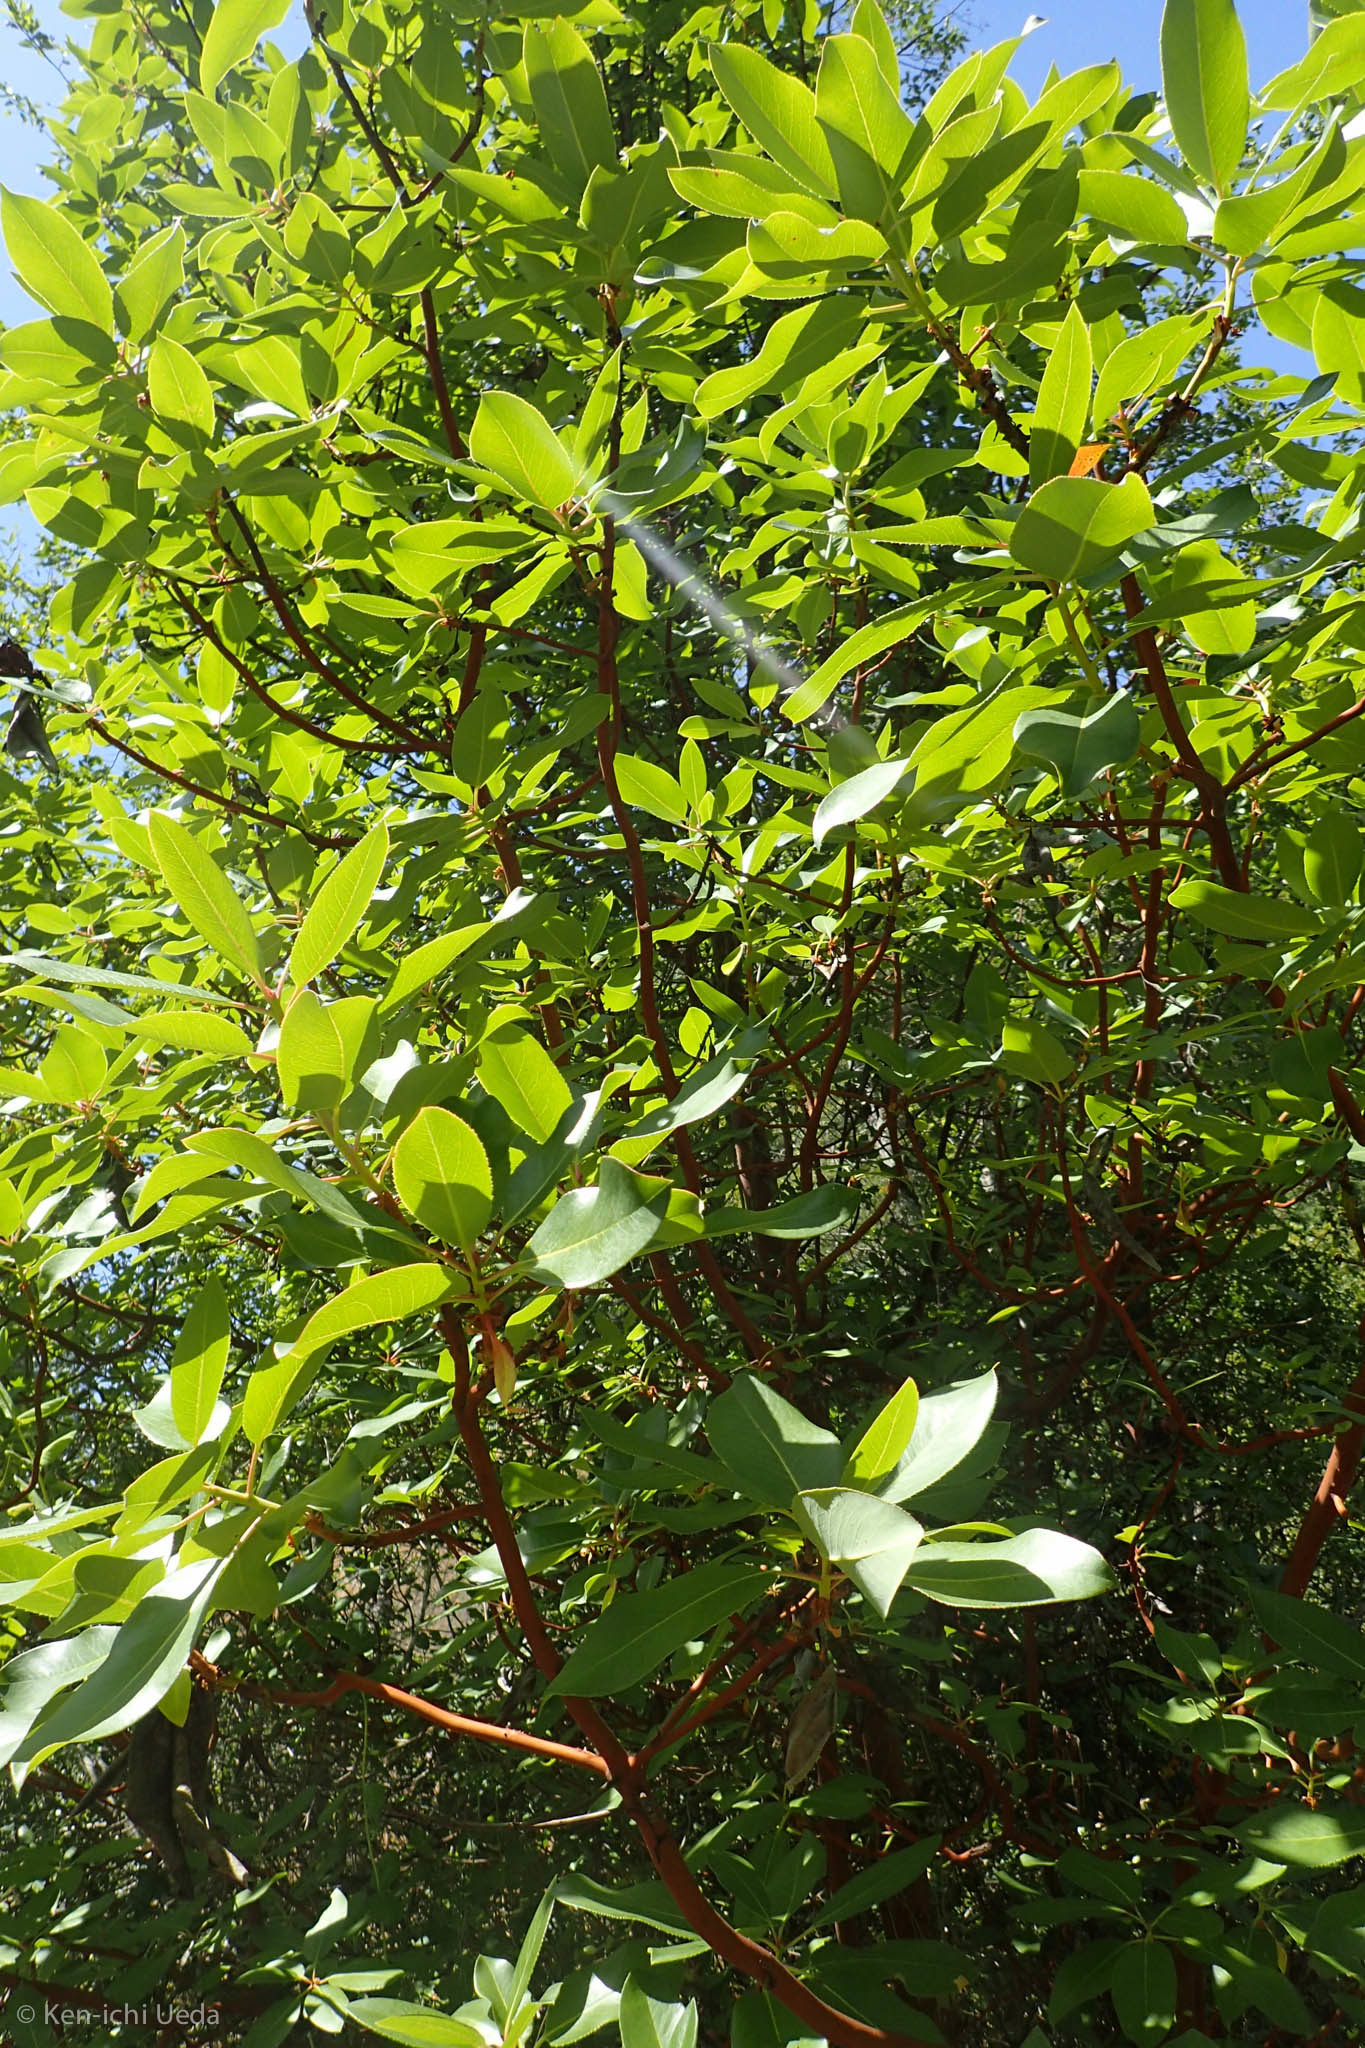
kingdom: Plantae
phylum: Tracheophyta
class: Magnoliopsida
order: Ericales
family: Ericaceae
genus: Arbutus
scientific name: Arbutus menziesii
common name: Pacific madrone
